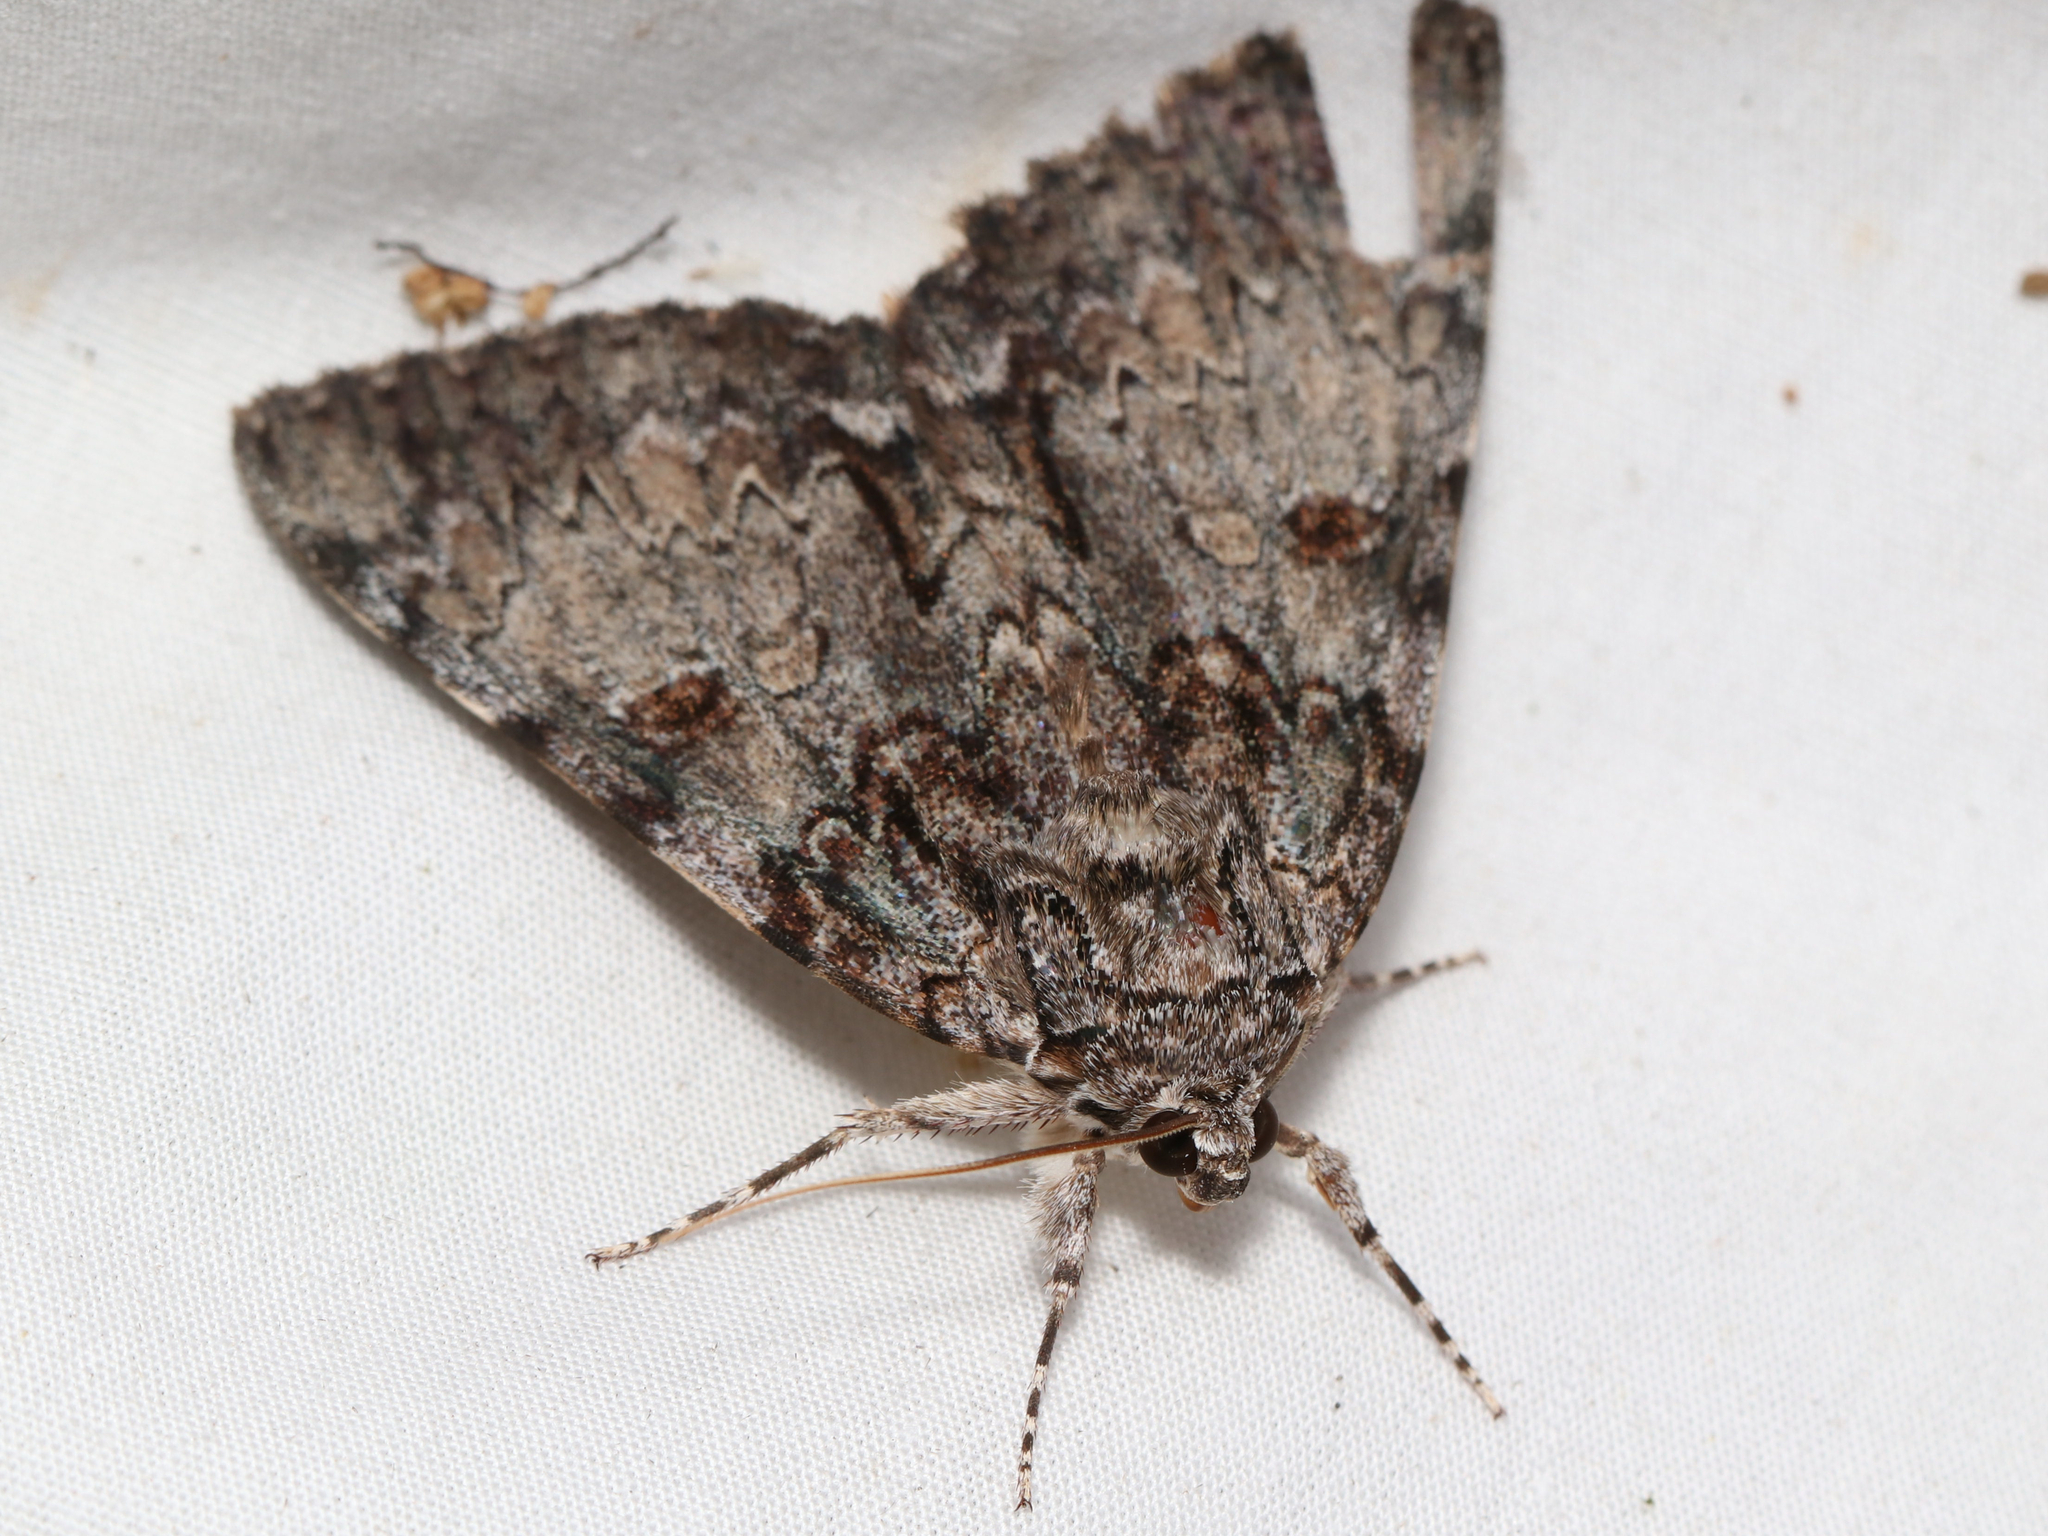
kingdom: Animalia
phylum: Arthropoda
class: Insecta
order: Lepidoptera
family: Erebidae
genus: Catocala
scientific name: Catocala palaeogama
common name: Oldwife underwing
